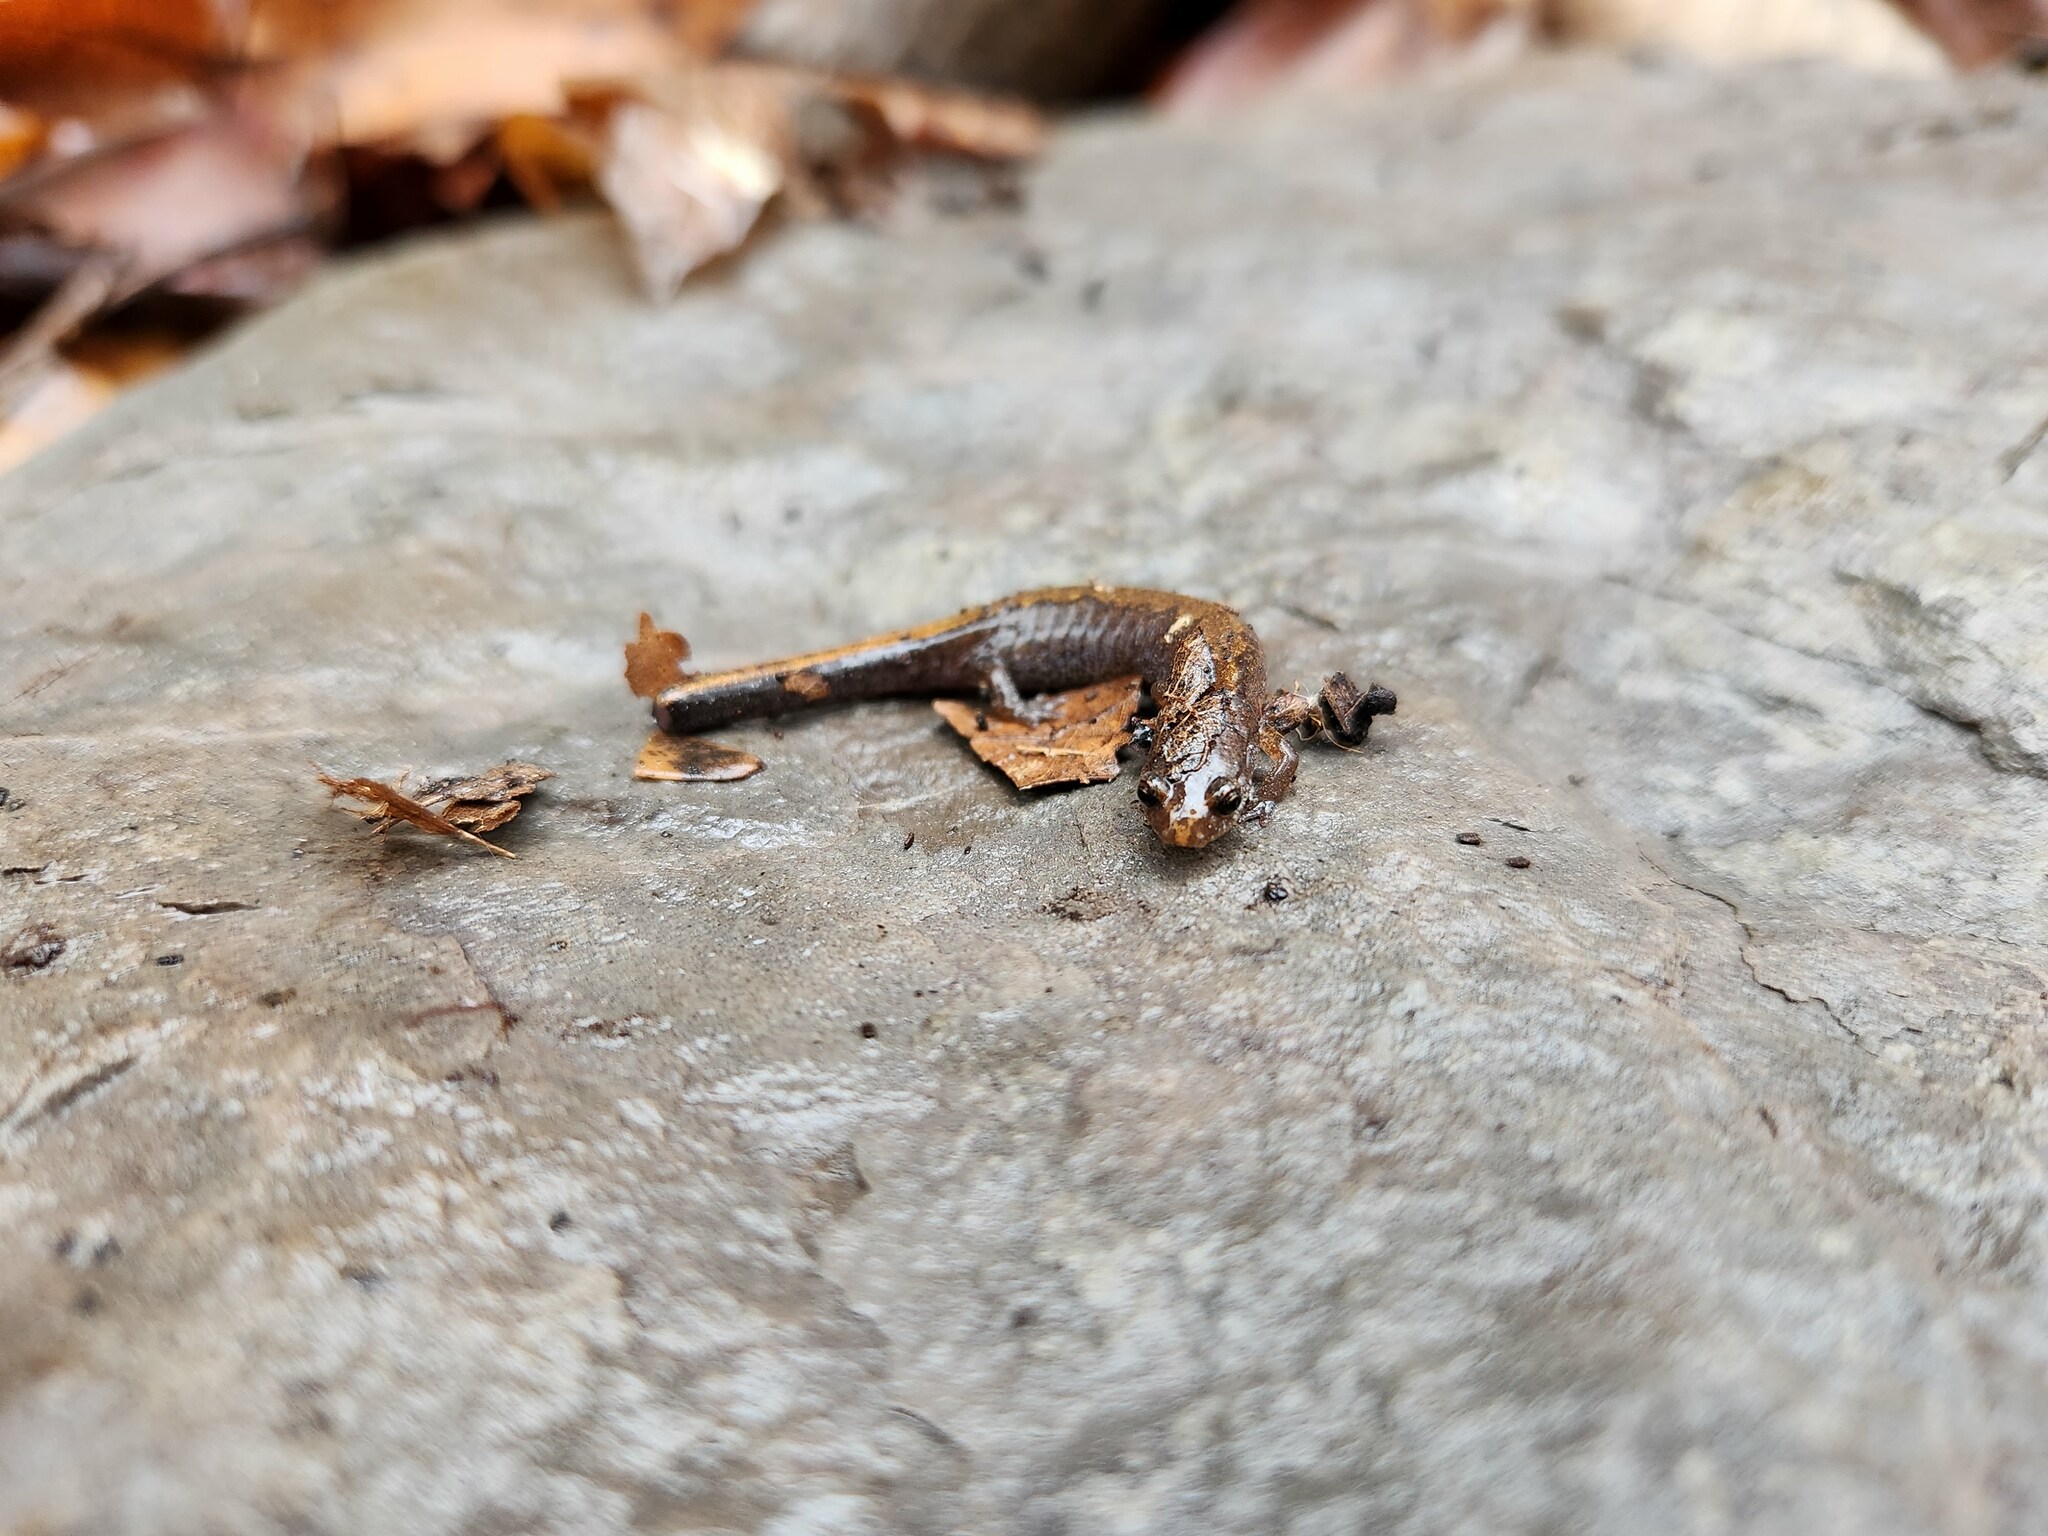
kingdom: Animalia
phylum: Chordata
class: Amphibia
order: Caudata
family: Plethodontidae
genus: Plethodon
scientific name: Plethodon dorsalis
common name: Northern zigzag salamander
